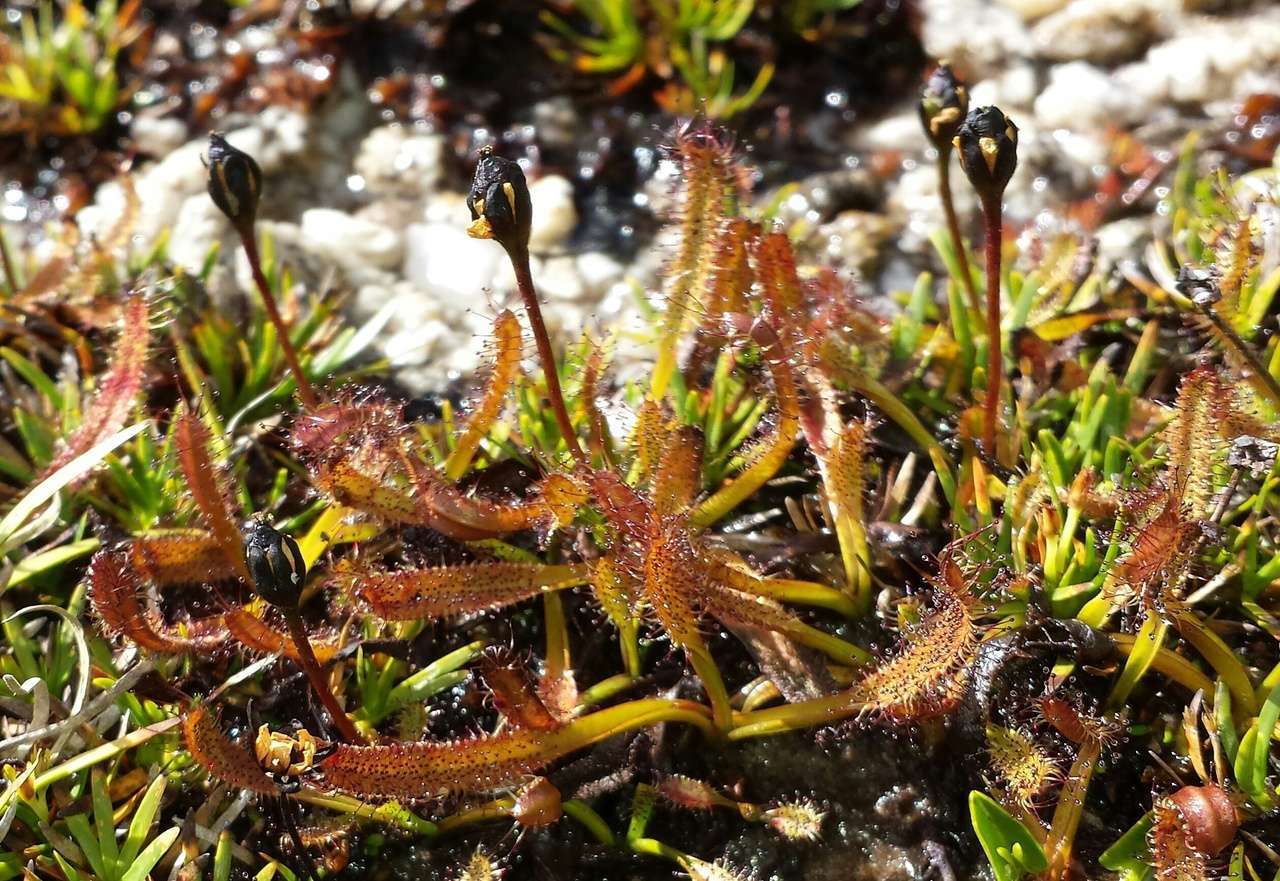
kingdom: Plantae
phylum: Tracheophyta
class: Magnoliopsida
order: Caryophyllales
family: Droseraceae
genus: Drosera
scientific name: Drosera arcturi
